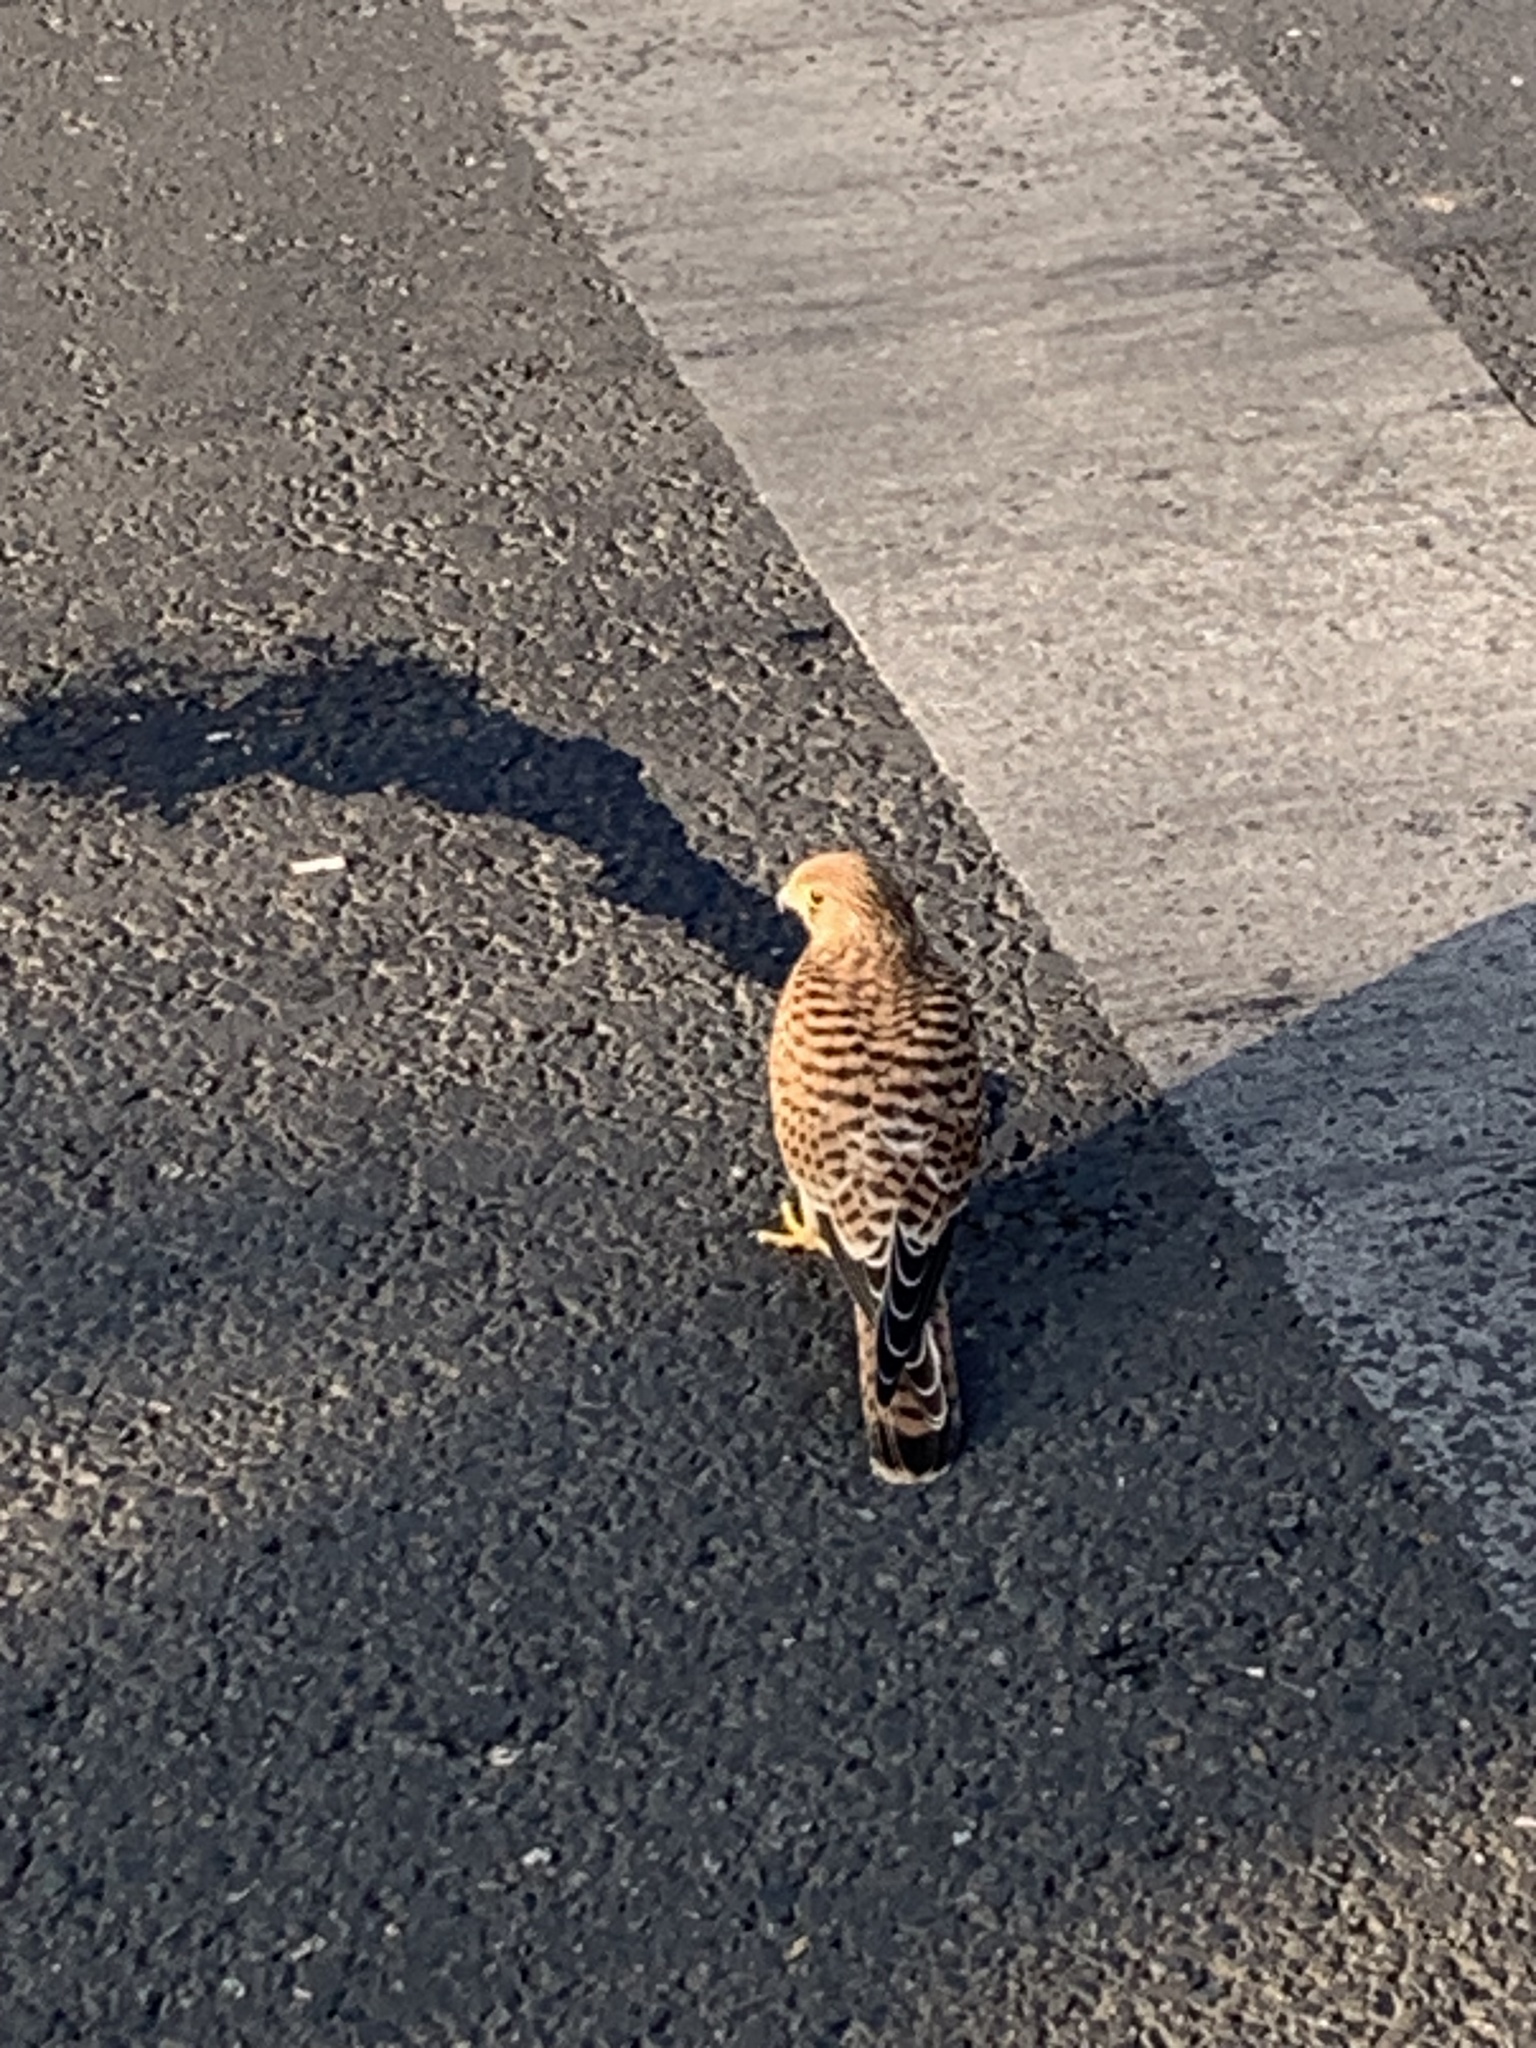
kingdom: Animalia
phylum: Chordata
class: Aves
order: Falconiformes
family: Falconidae
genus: Falco
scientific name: Falco tinnunculus
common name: Common kestrel
